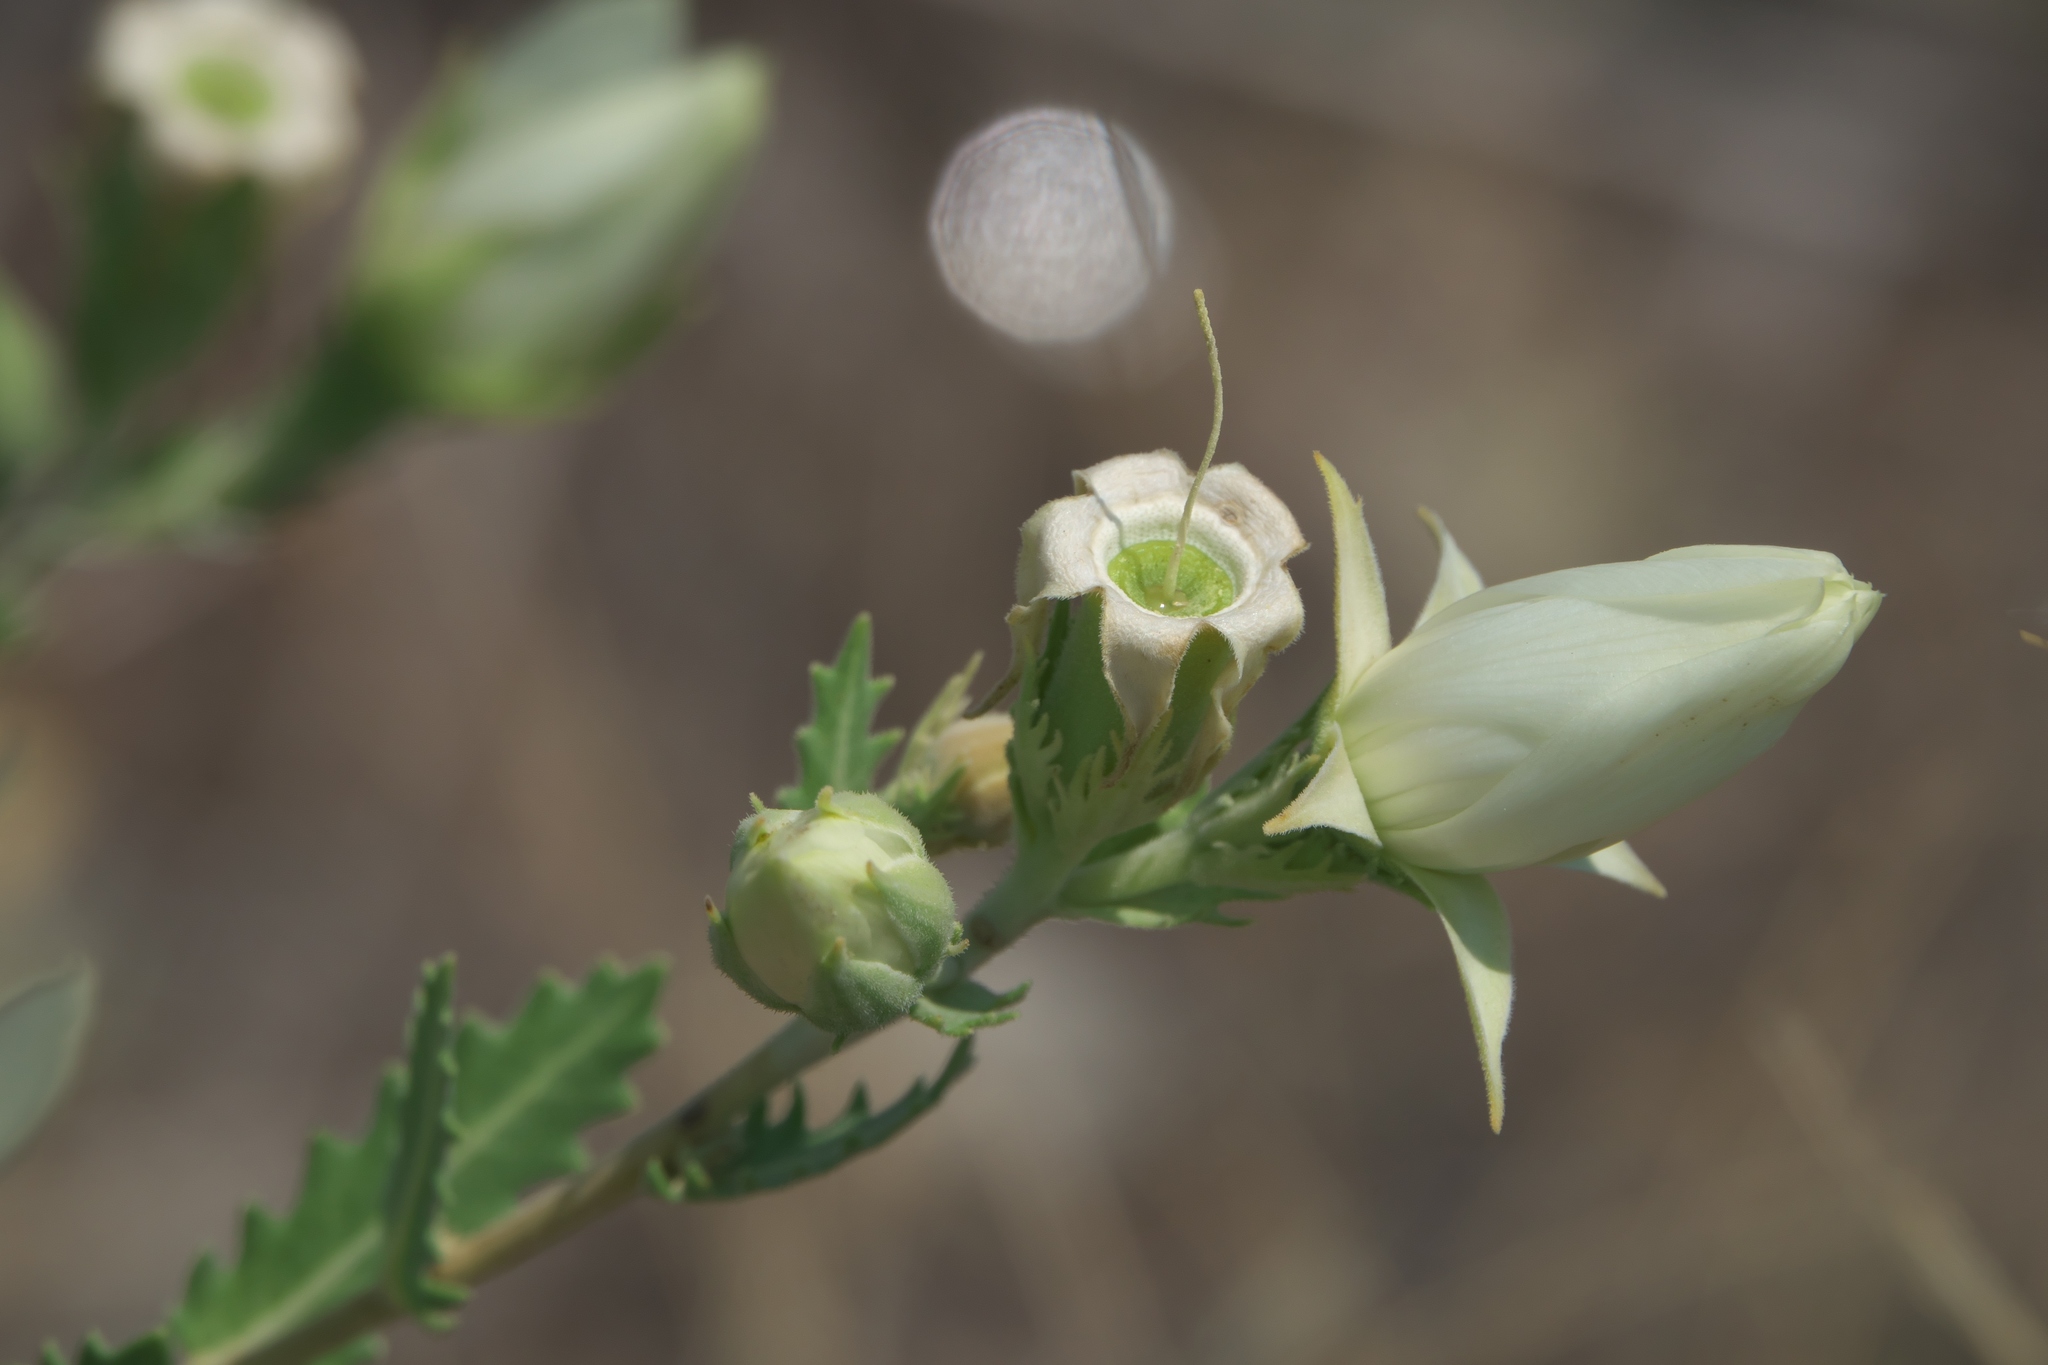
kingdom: Plantae
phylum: Tracheophyta
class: Magnoliopsida
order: Cornales
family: Loasaceae
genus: Mentzelia
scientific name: Mentzelia nuda
